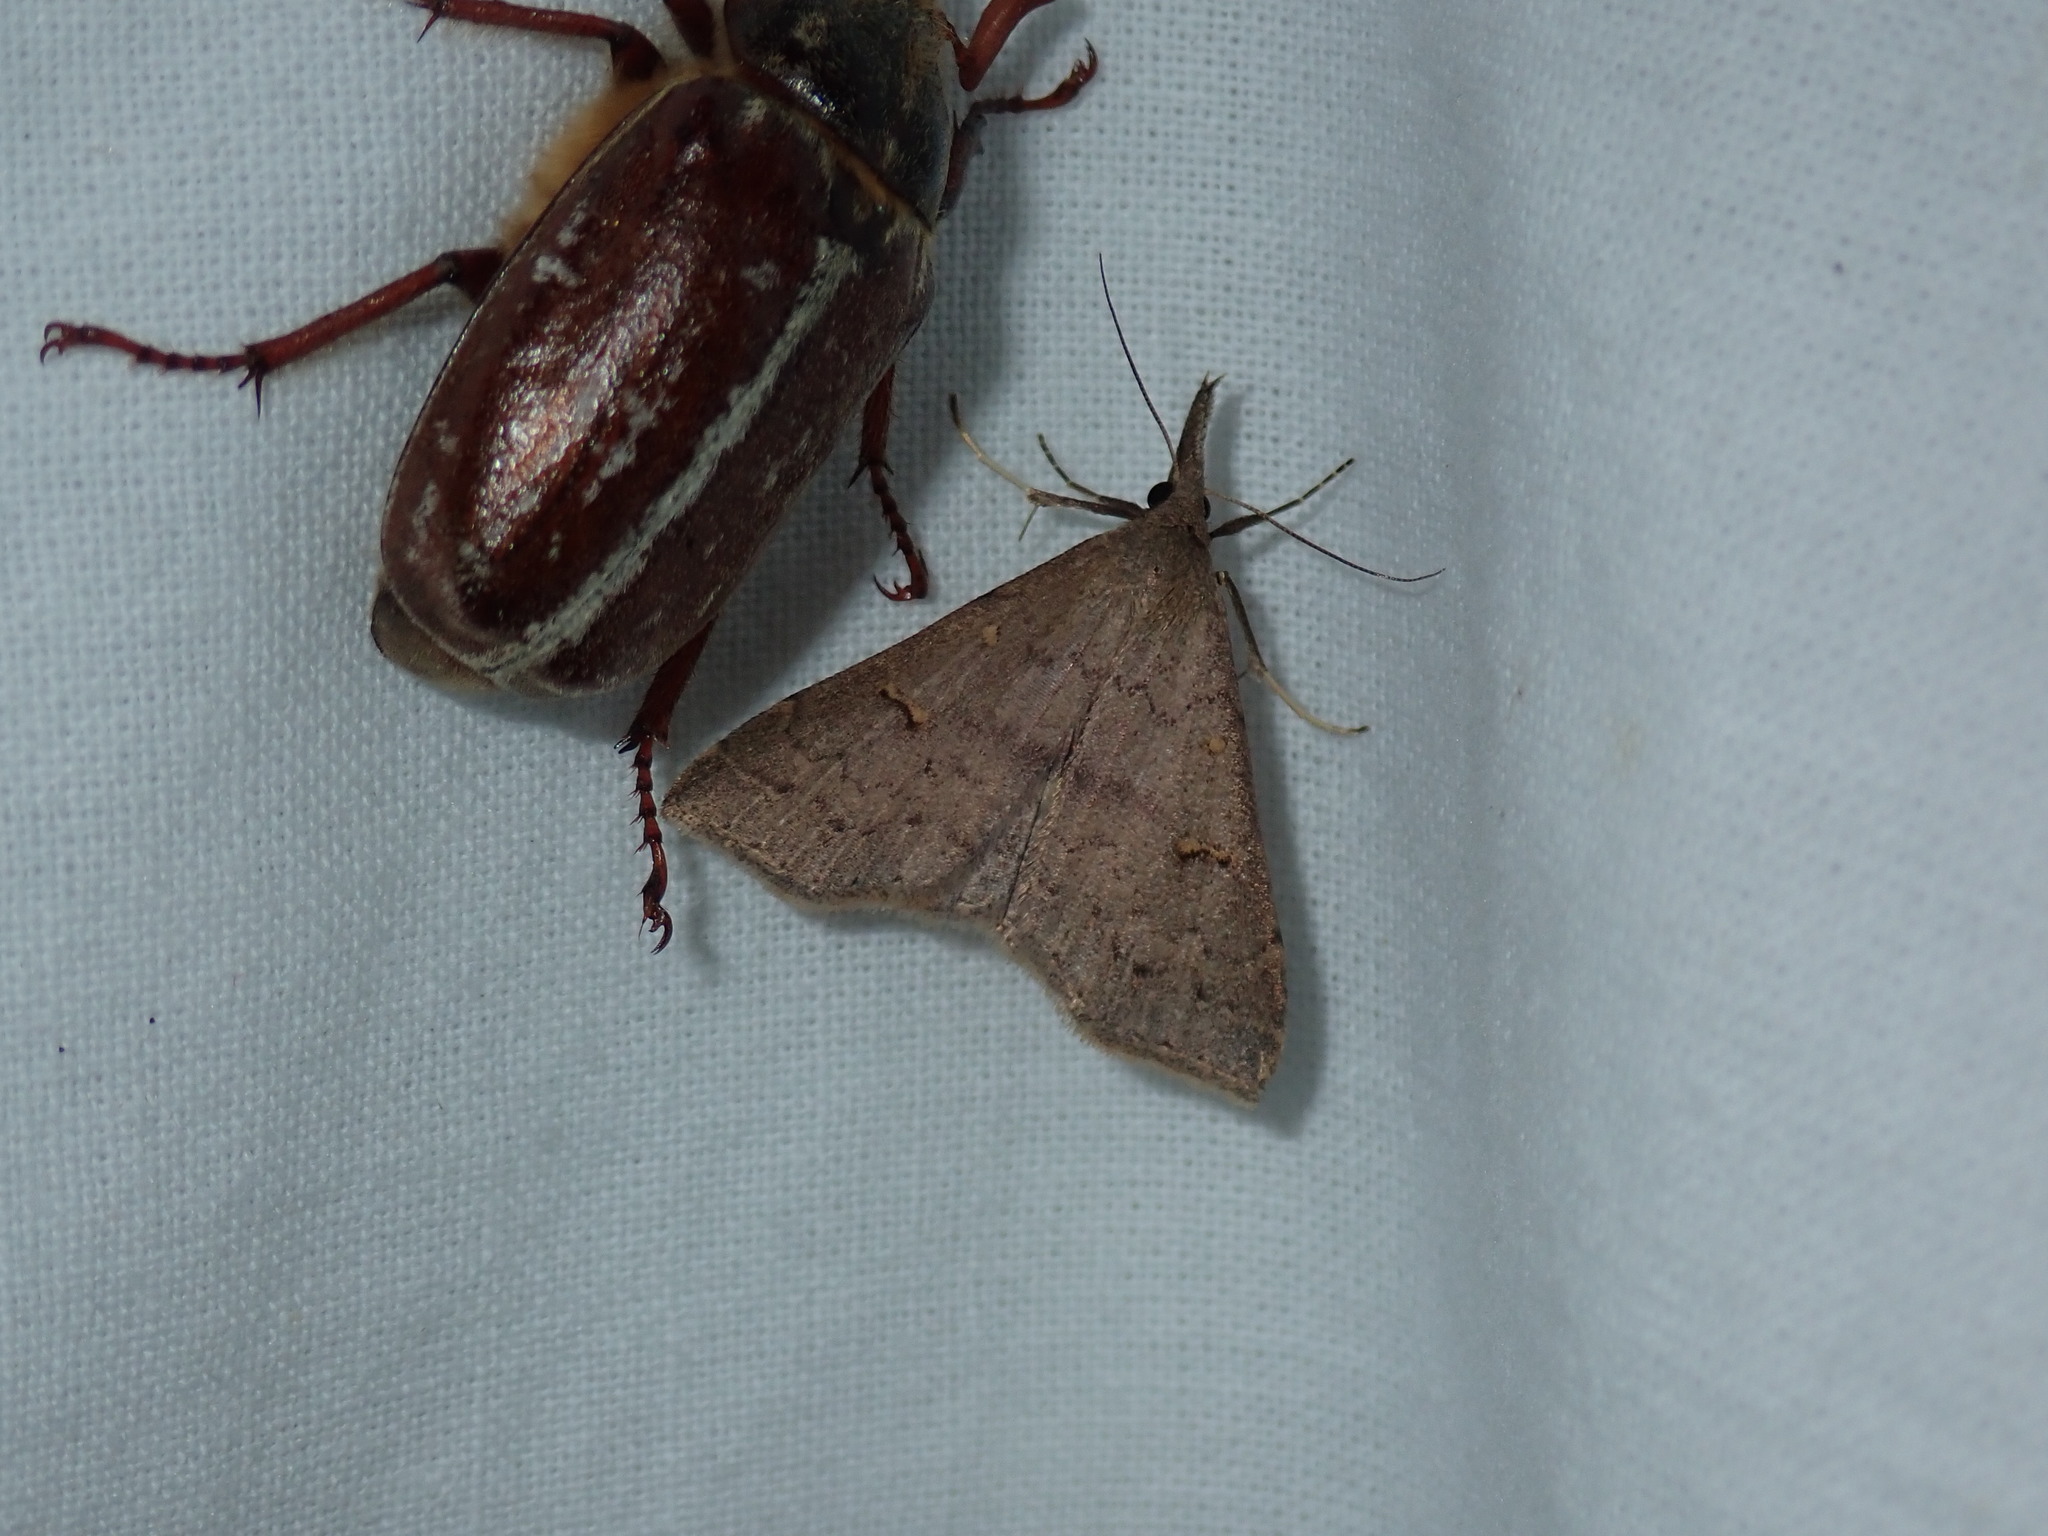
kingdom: Animalia
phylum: Arthropoda
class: Insecta
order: Lepidoptera
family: Erebidae
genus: Renia
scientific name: Renia adspergillus
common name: Speckled renia moth
